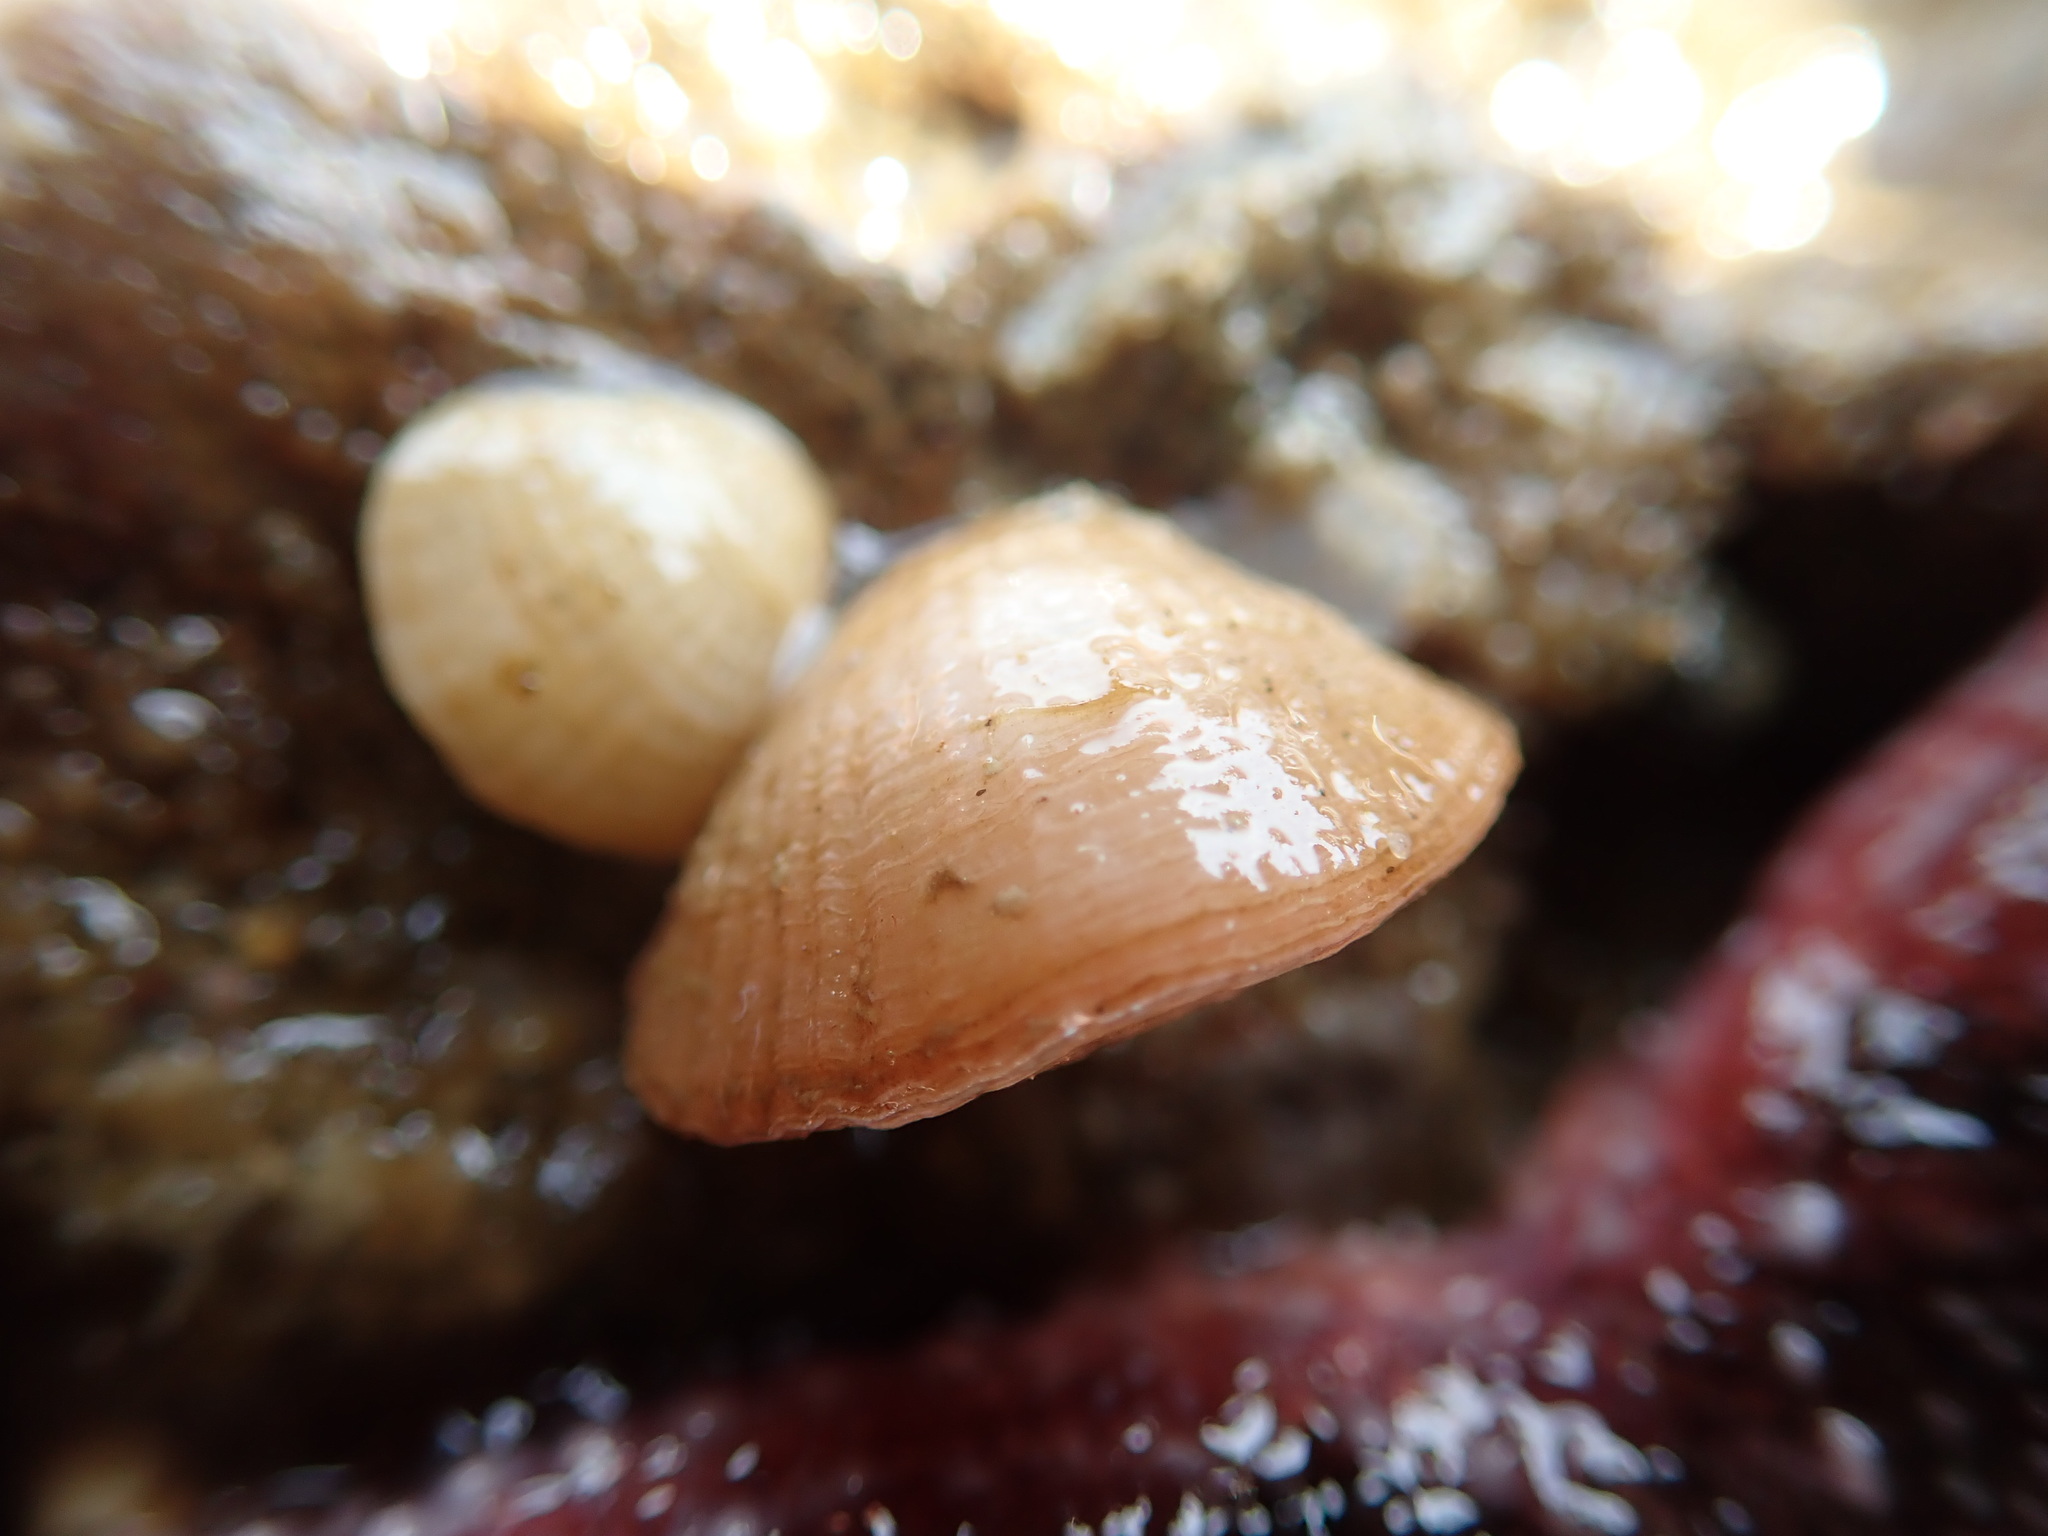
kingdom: Animalia
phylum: Brachiopoda
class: Rhynchonellata
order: Terebratulida
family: Terebrataliidae
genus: Terebratalia
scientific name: Terebratalia transversa
